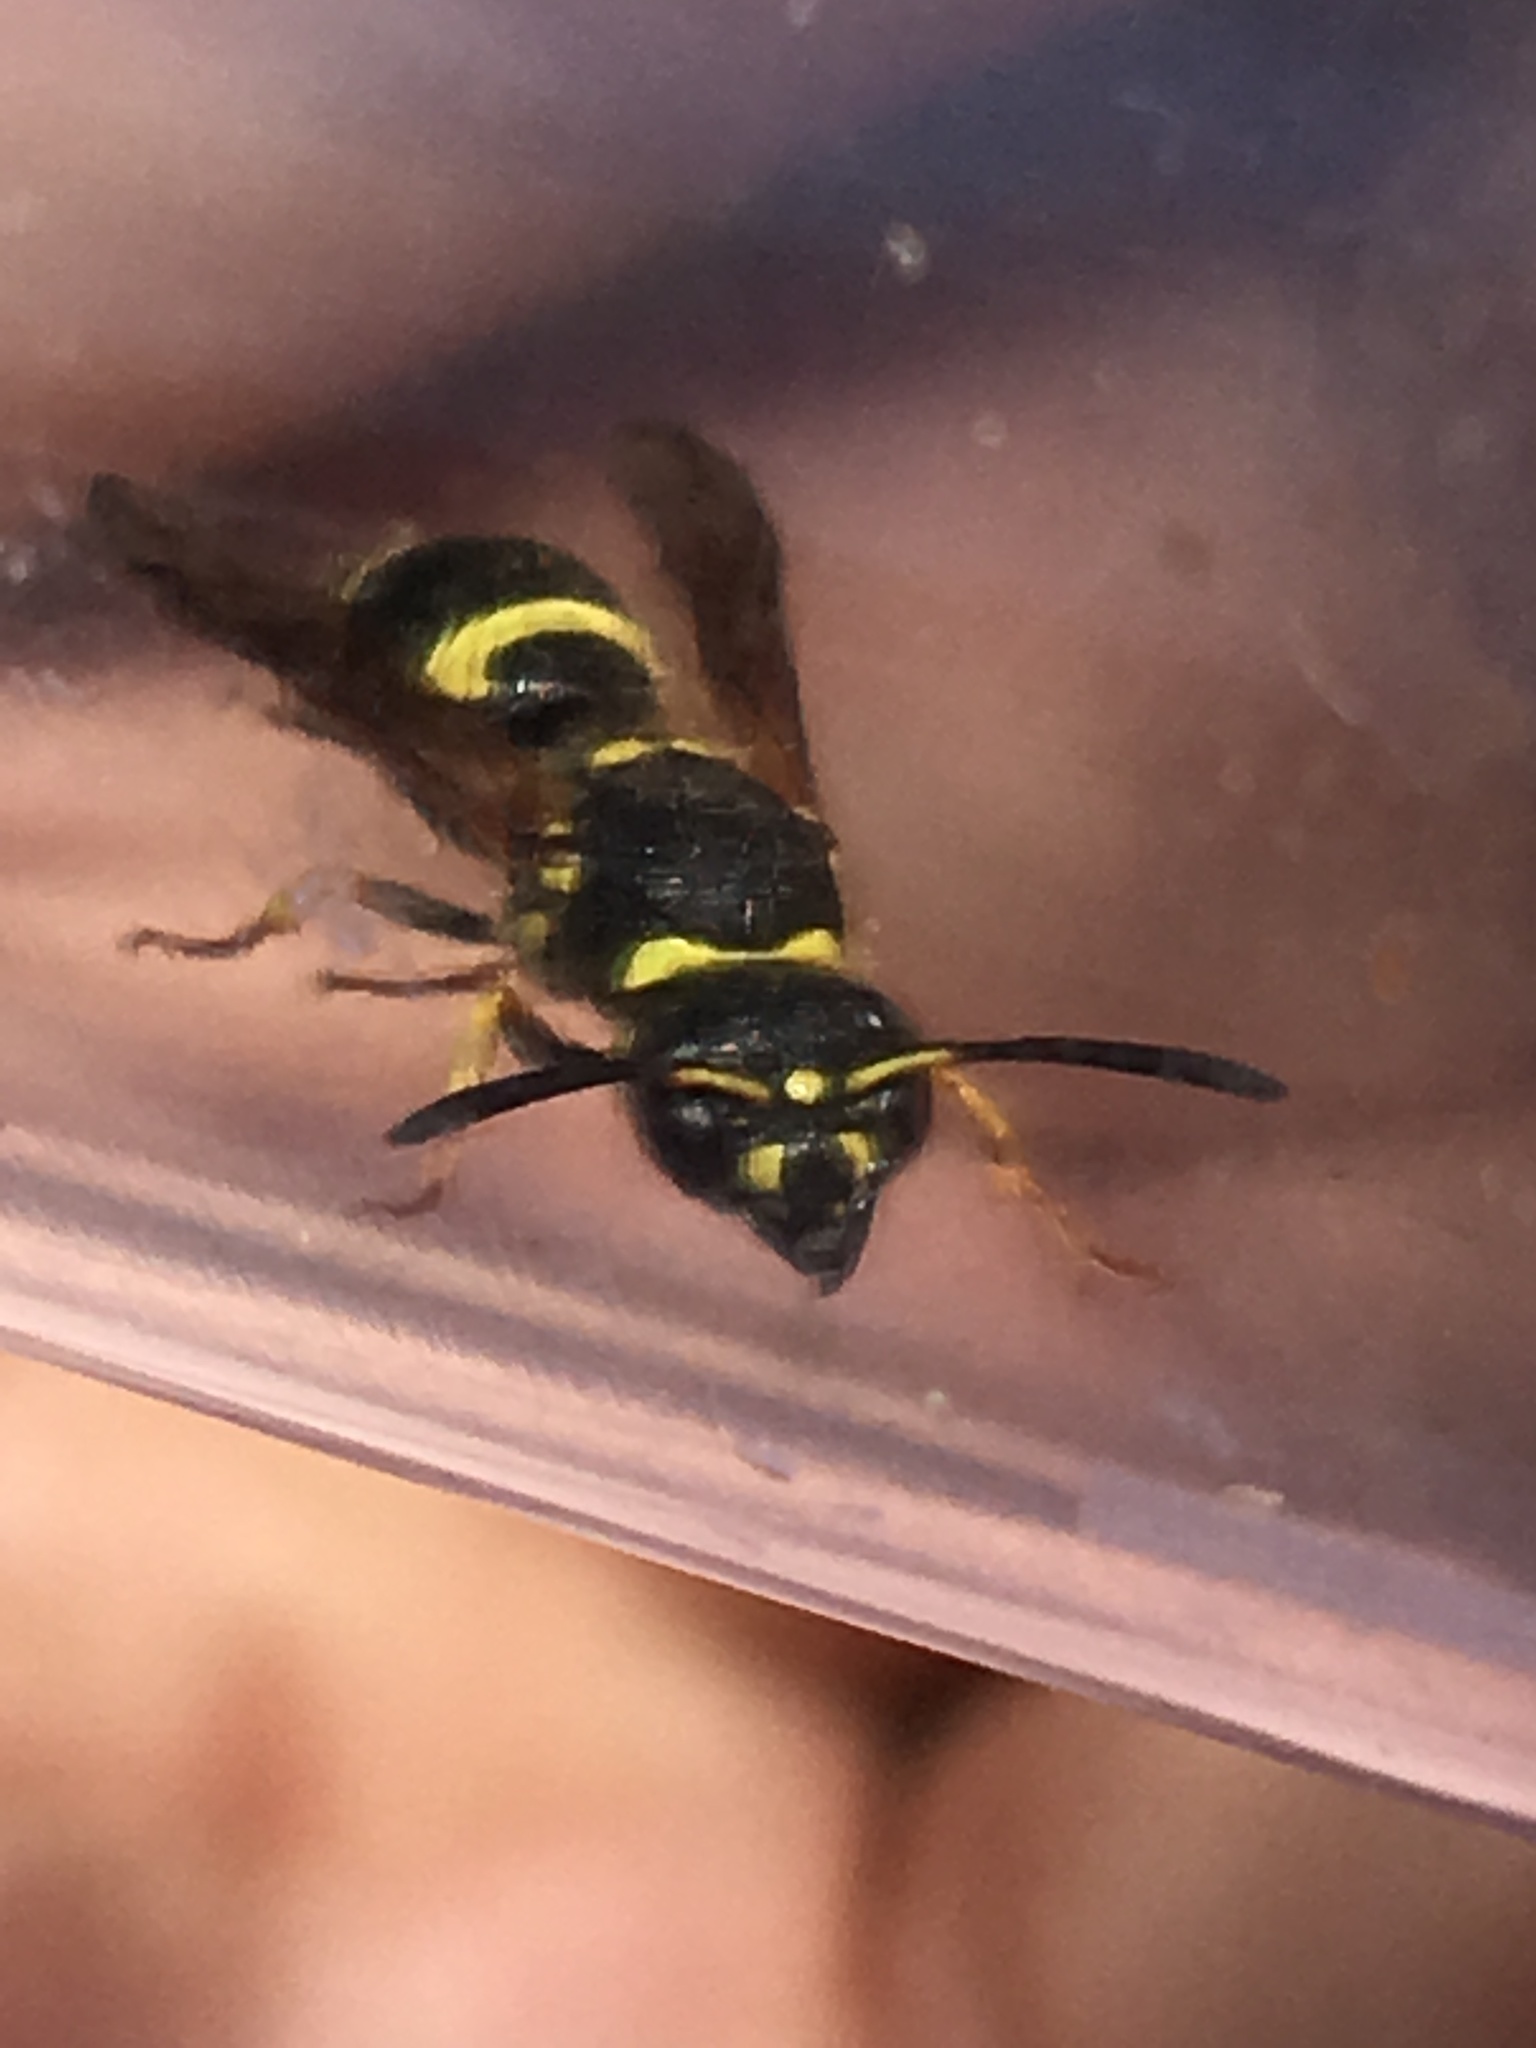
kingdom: Animalia
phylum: Arthropoda
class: Insecta
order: Hymenoptera
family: Vespidae
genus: Ancistrocerus
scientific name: Ancistrocerus
